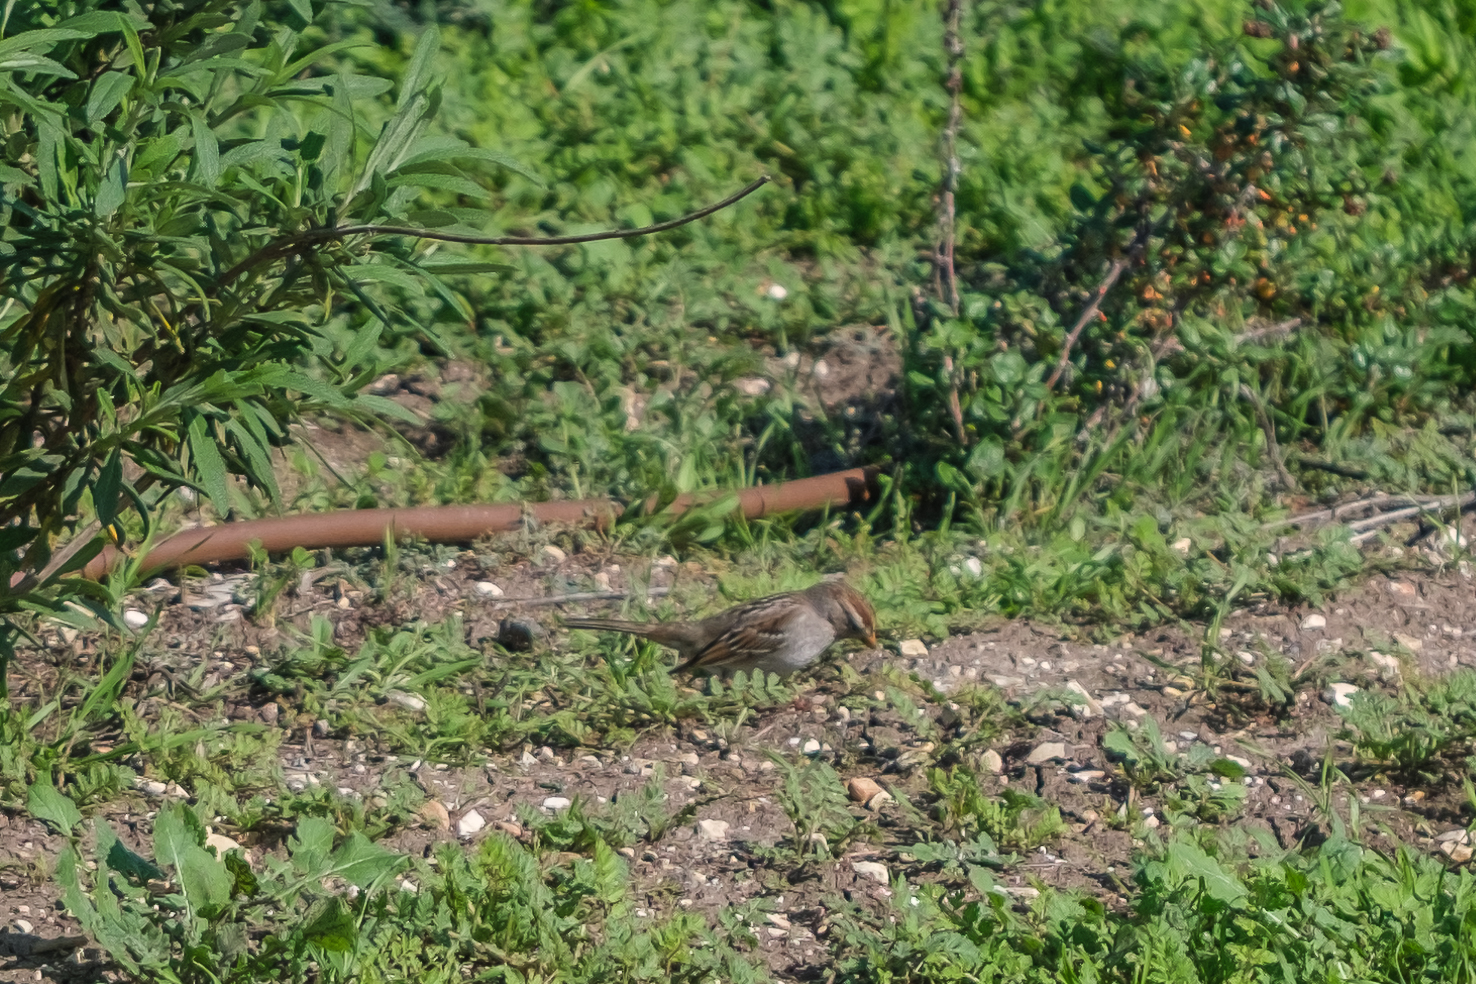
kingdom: Animalia
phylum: Chordata
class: Aves
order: Passeriformes
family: Passerellidae
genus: Zonotrichia
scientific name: Zonotrichia leucophrys
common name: White-crowned sparrow
